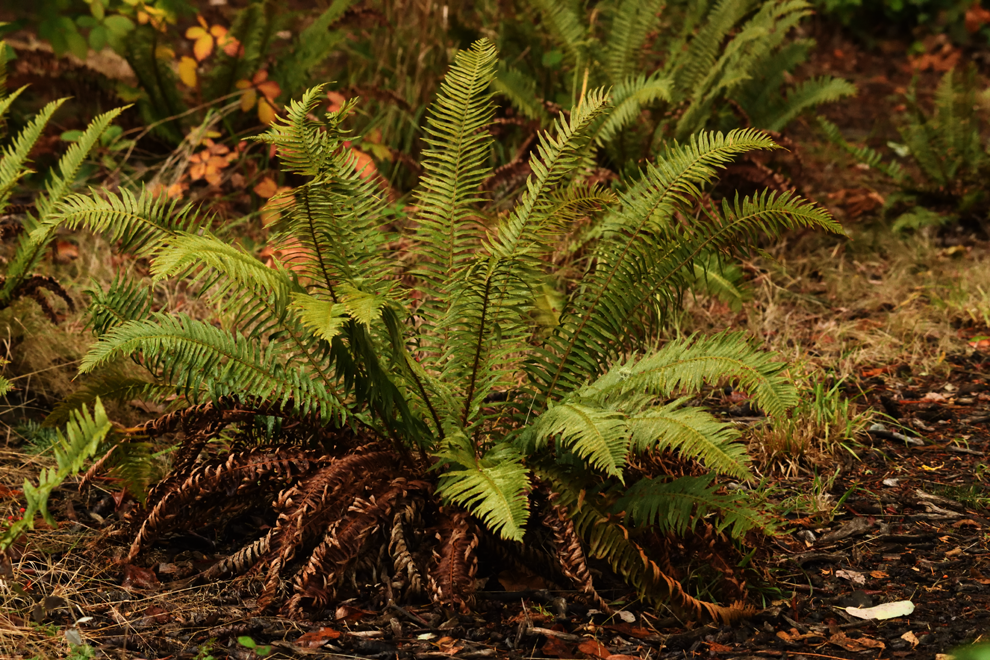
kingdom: Plantae
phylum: Tracheophyta
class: Polypodiopsida
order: Polypodiales
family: Dryopteridaceae
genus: Polystichum
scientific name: Polystichum munitum
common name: Western sword-fern
